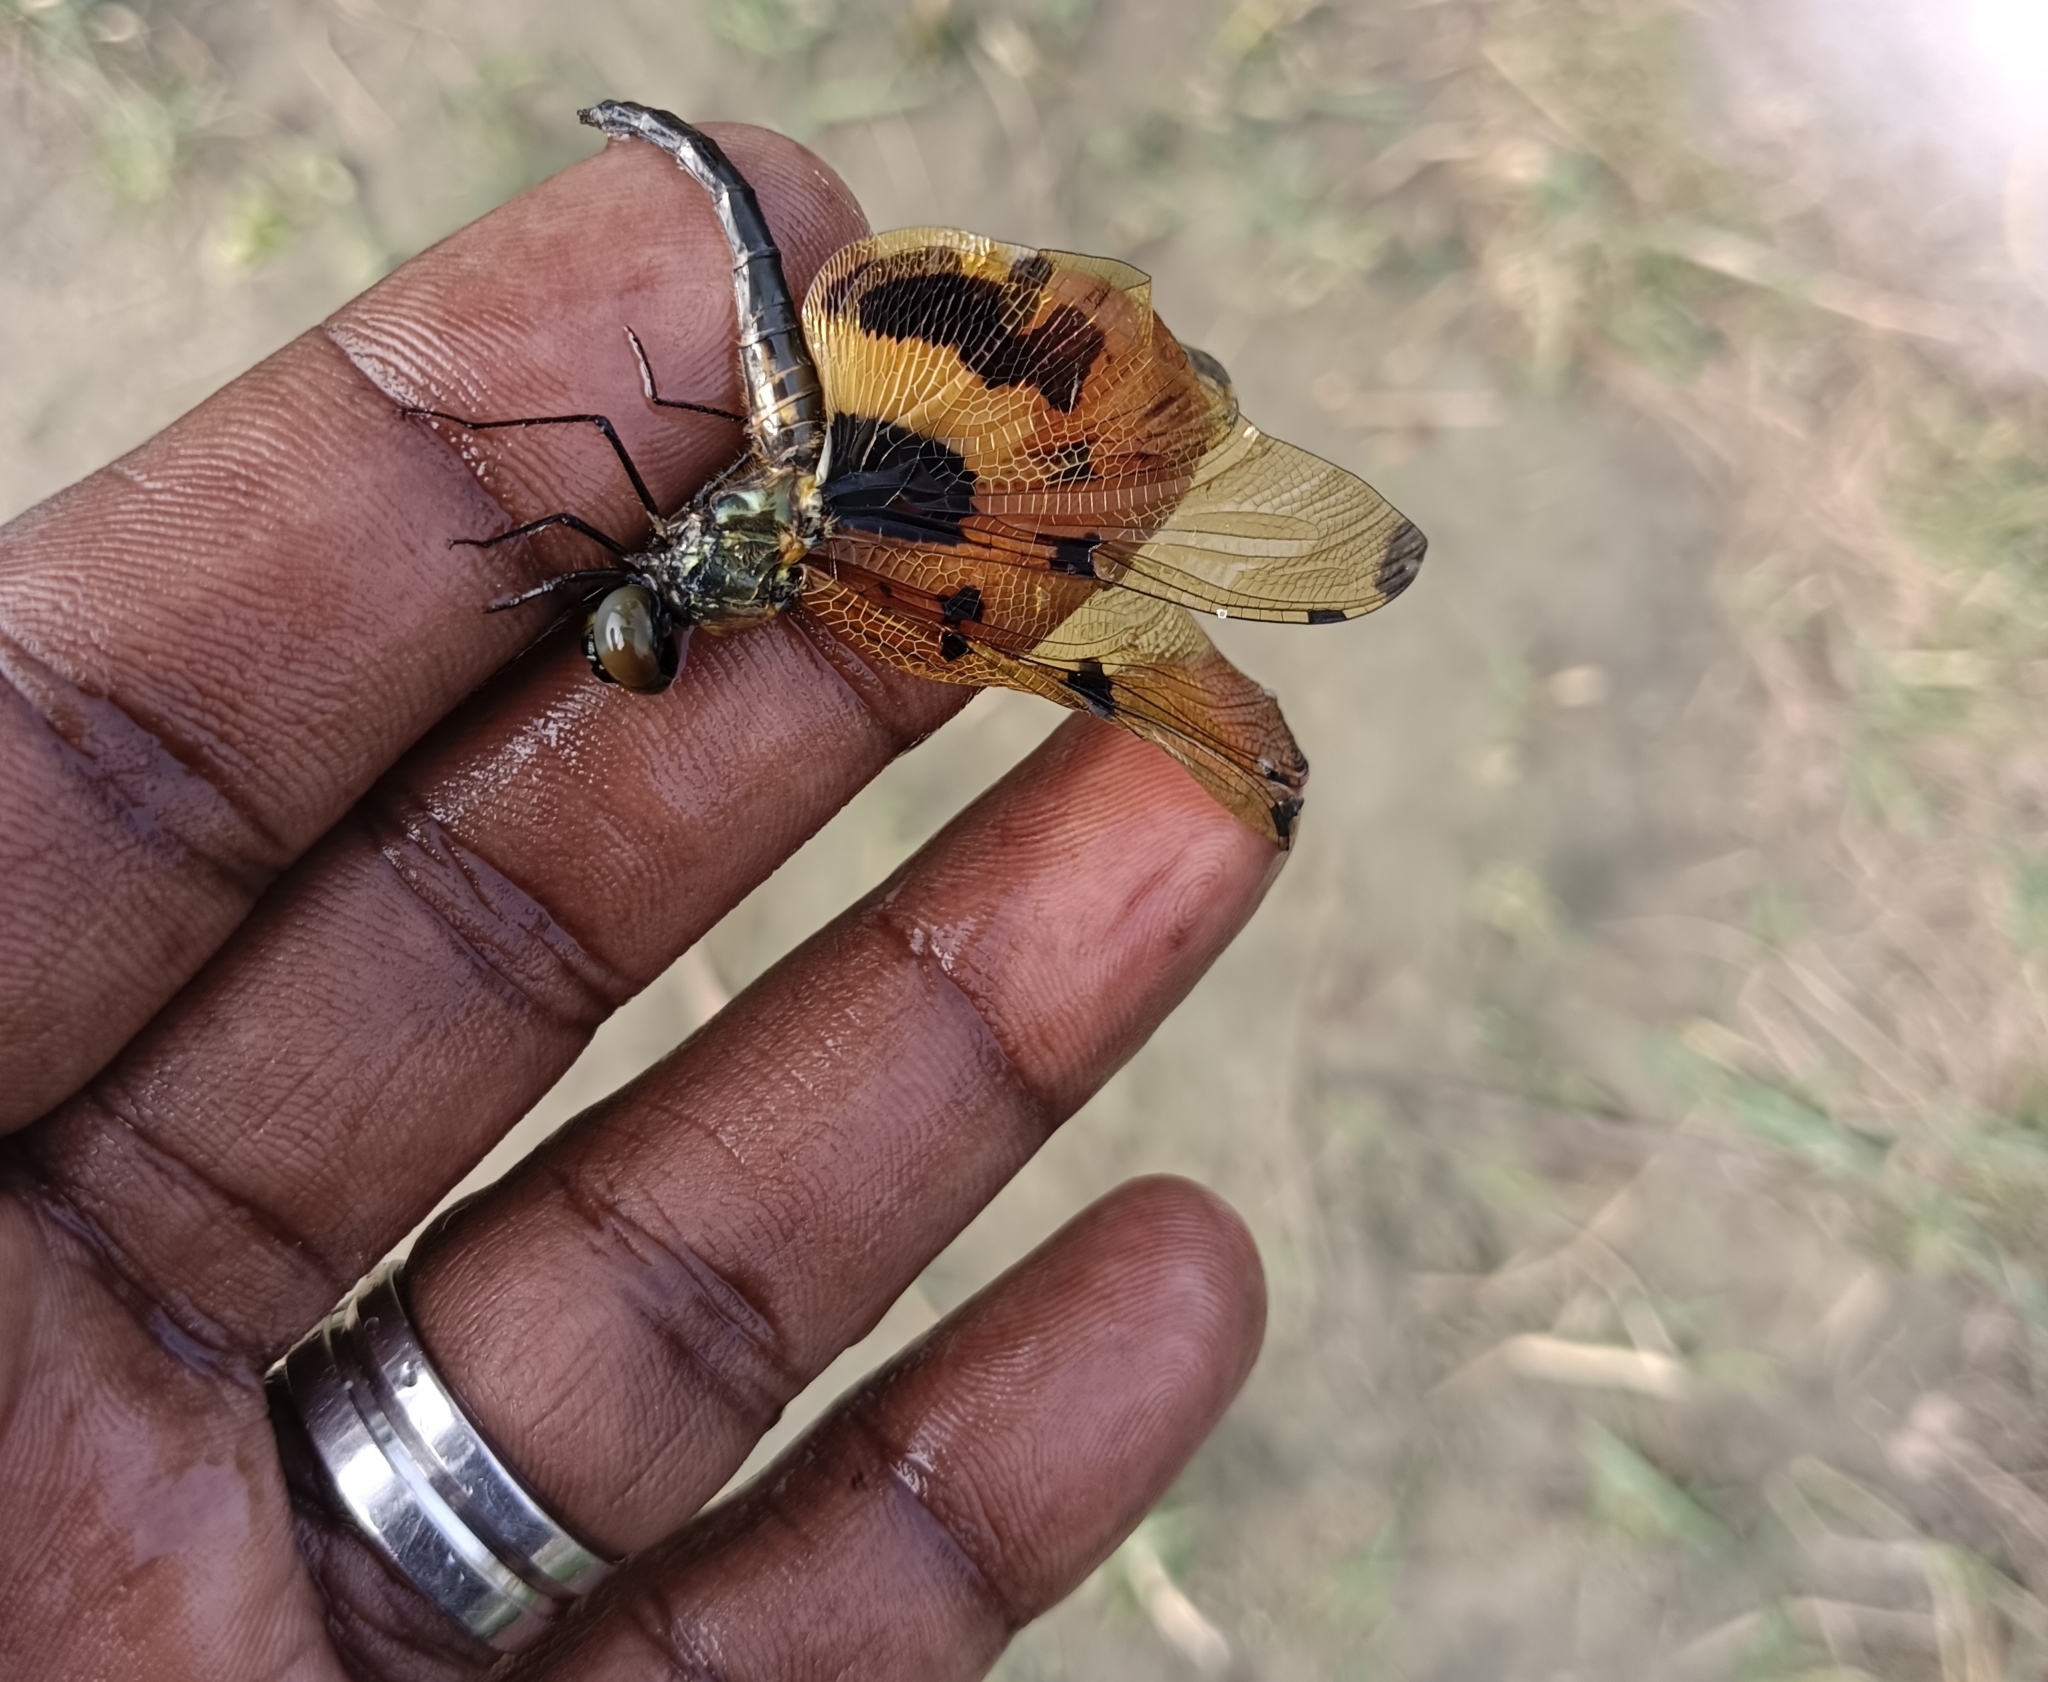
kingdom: Animalia
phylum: Arthropoda
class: Insecta
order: Odonata
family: Libellulidae
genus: Rhyothemis
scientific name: Rhyothemis variegata
